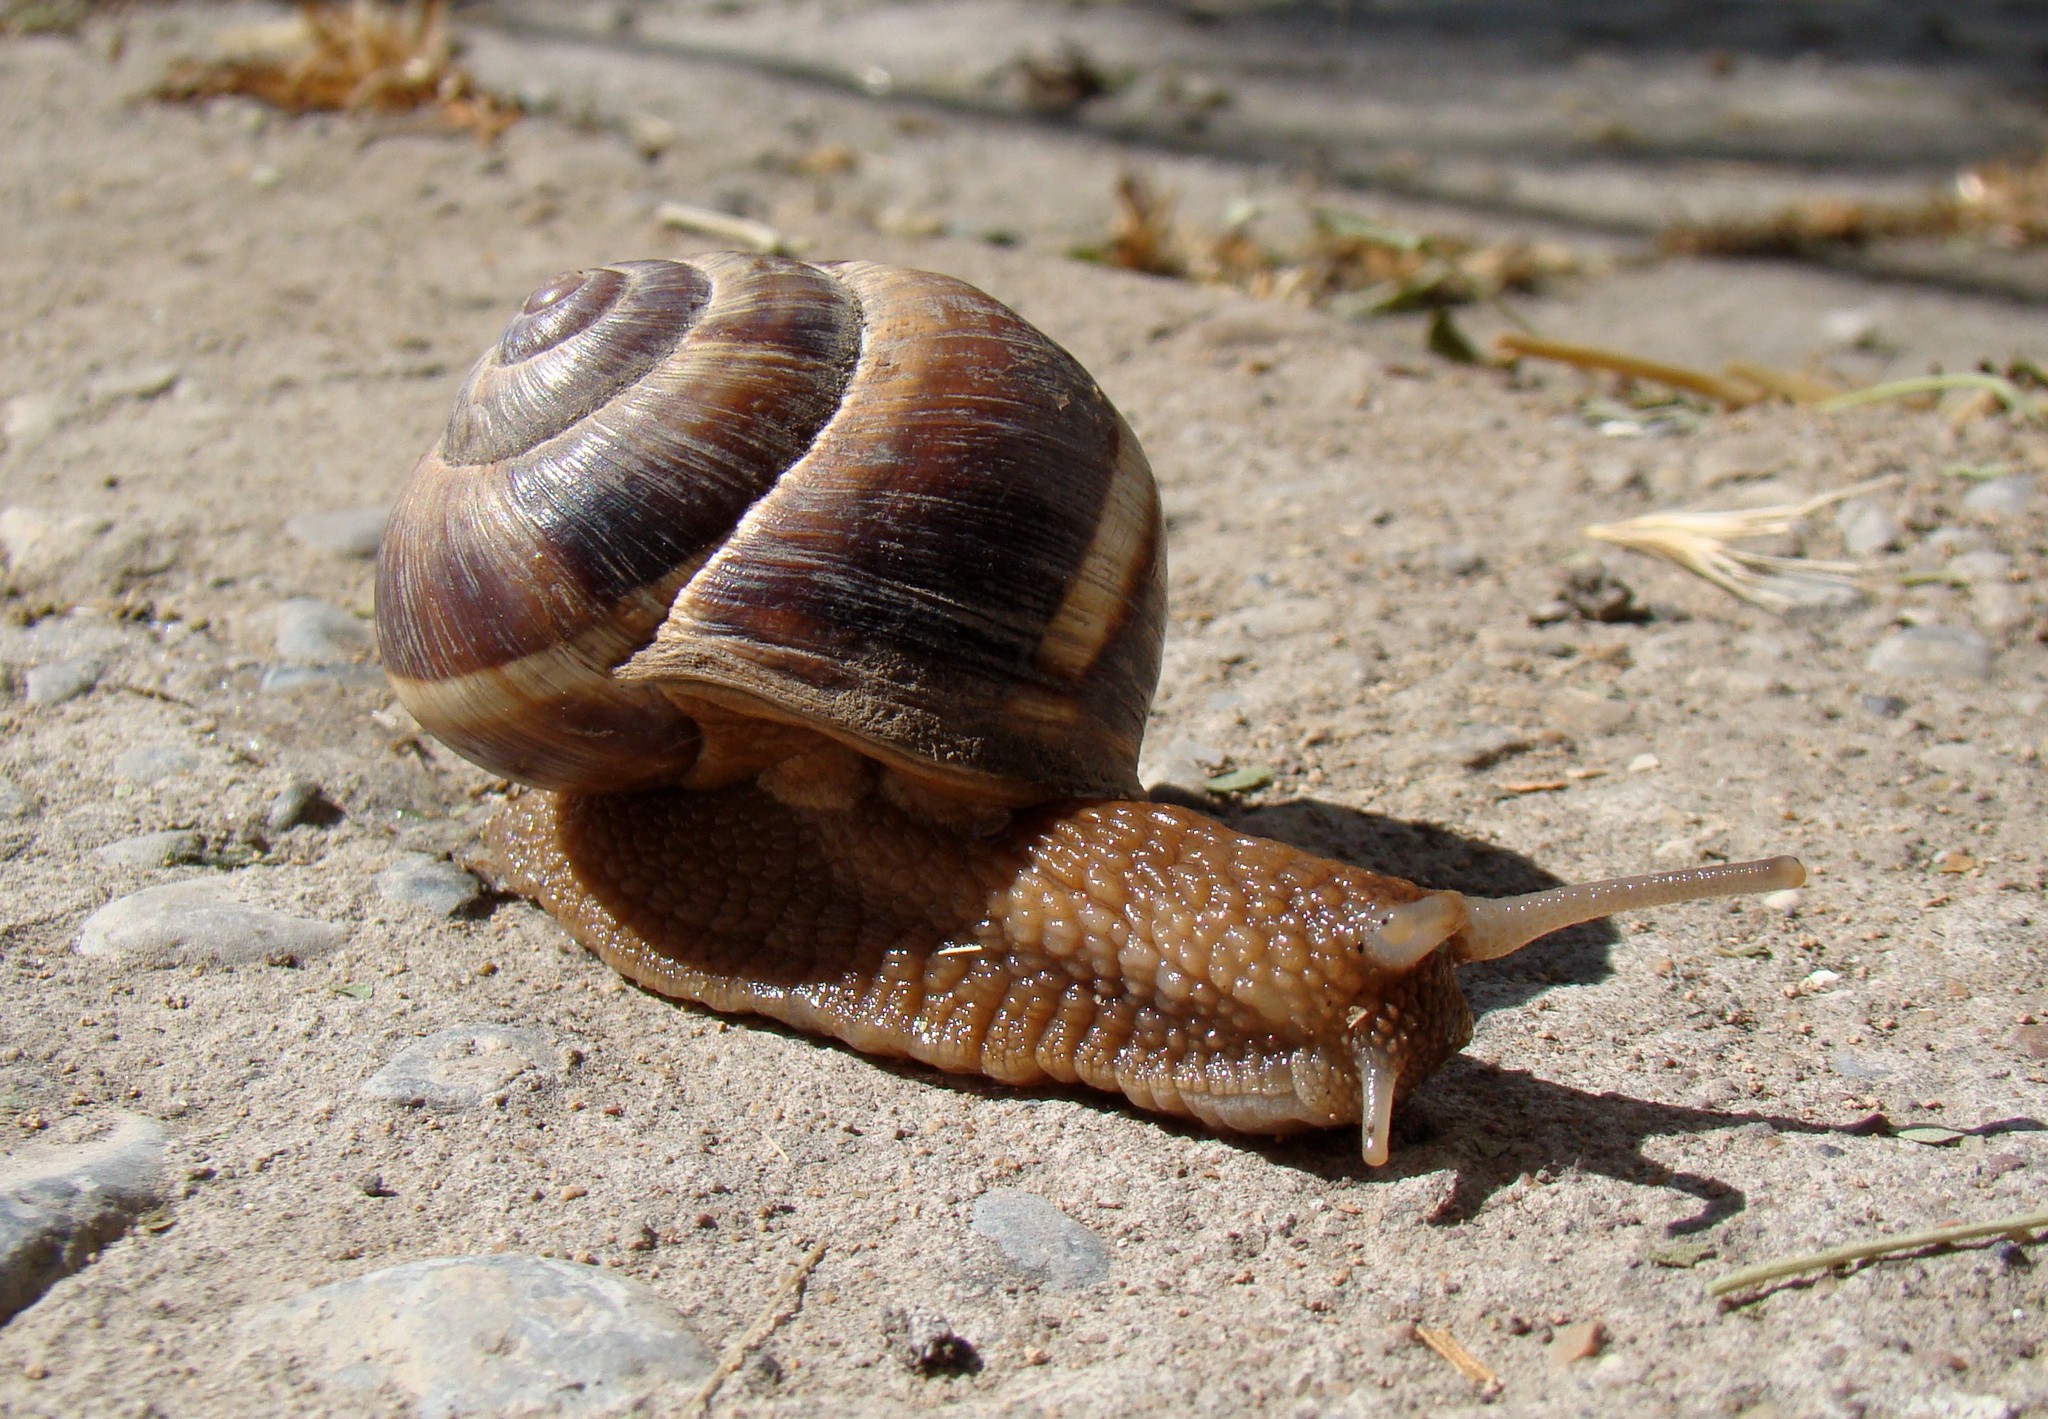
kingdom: Animalia
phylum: Mollusca
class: Gastropoda
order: Stylommatophora
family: Helicidae
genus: Helix
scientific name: Helix lucorum
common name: Turkish snail
